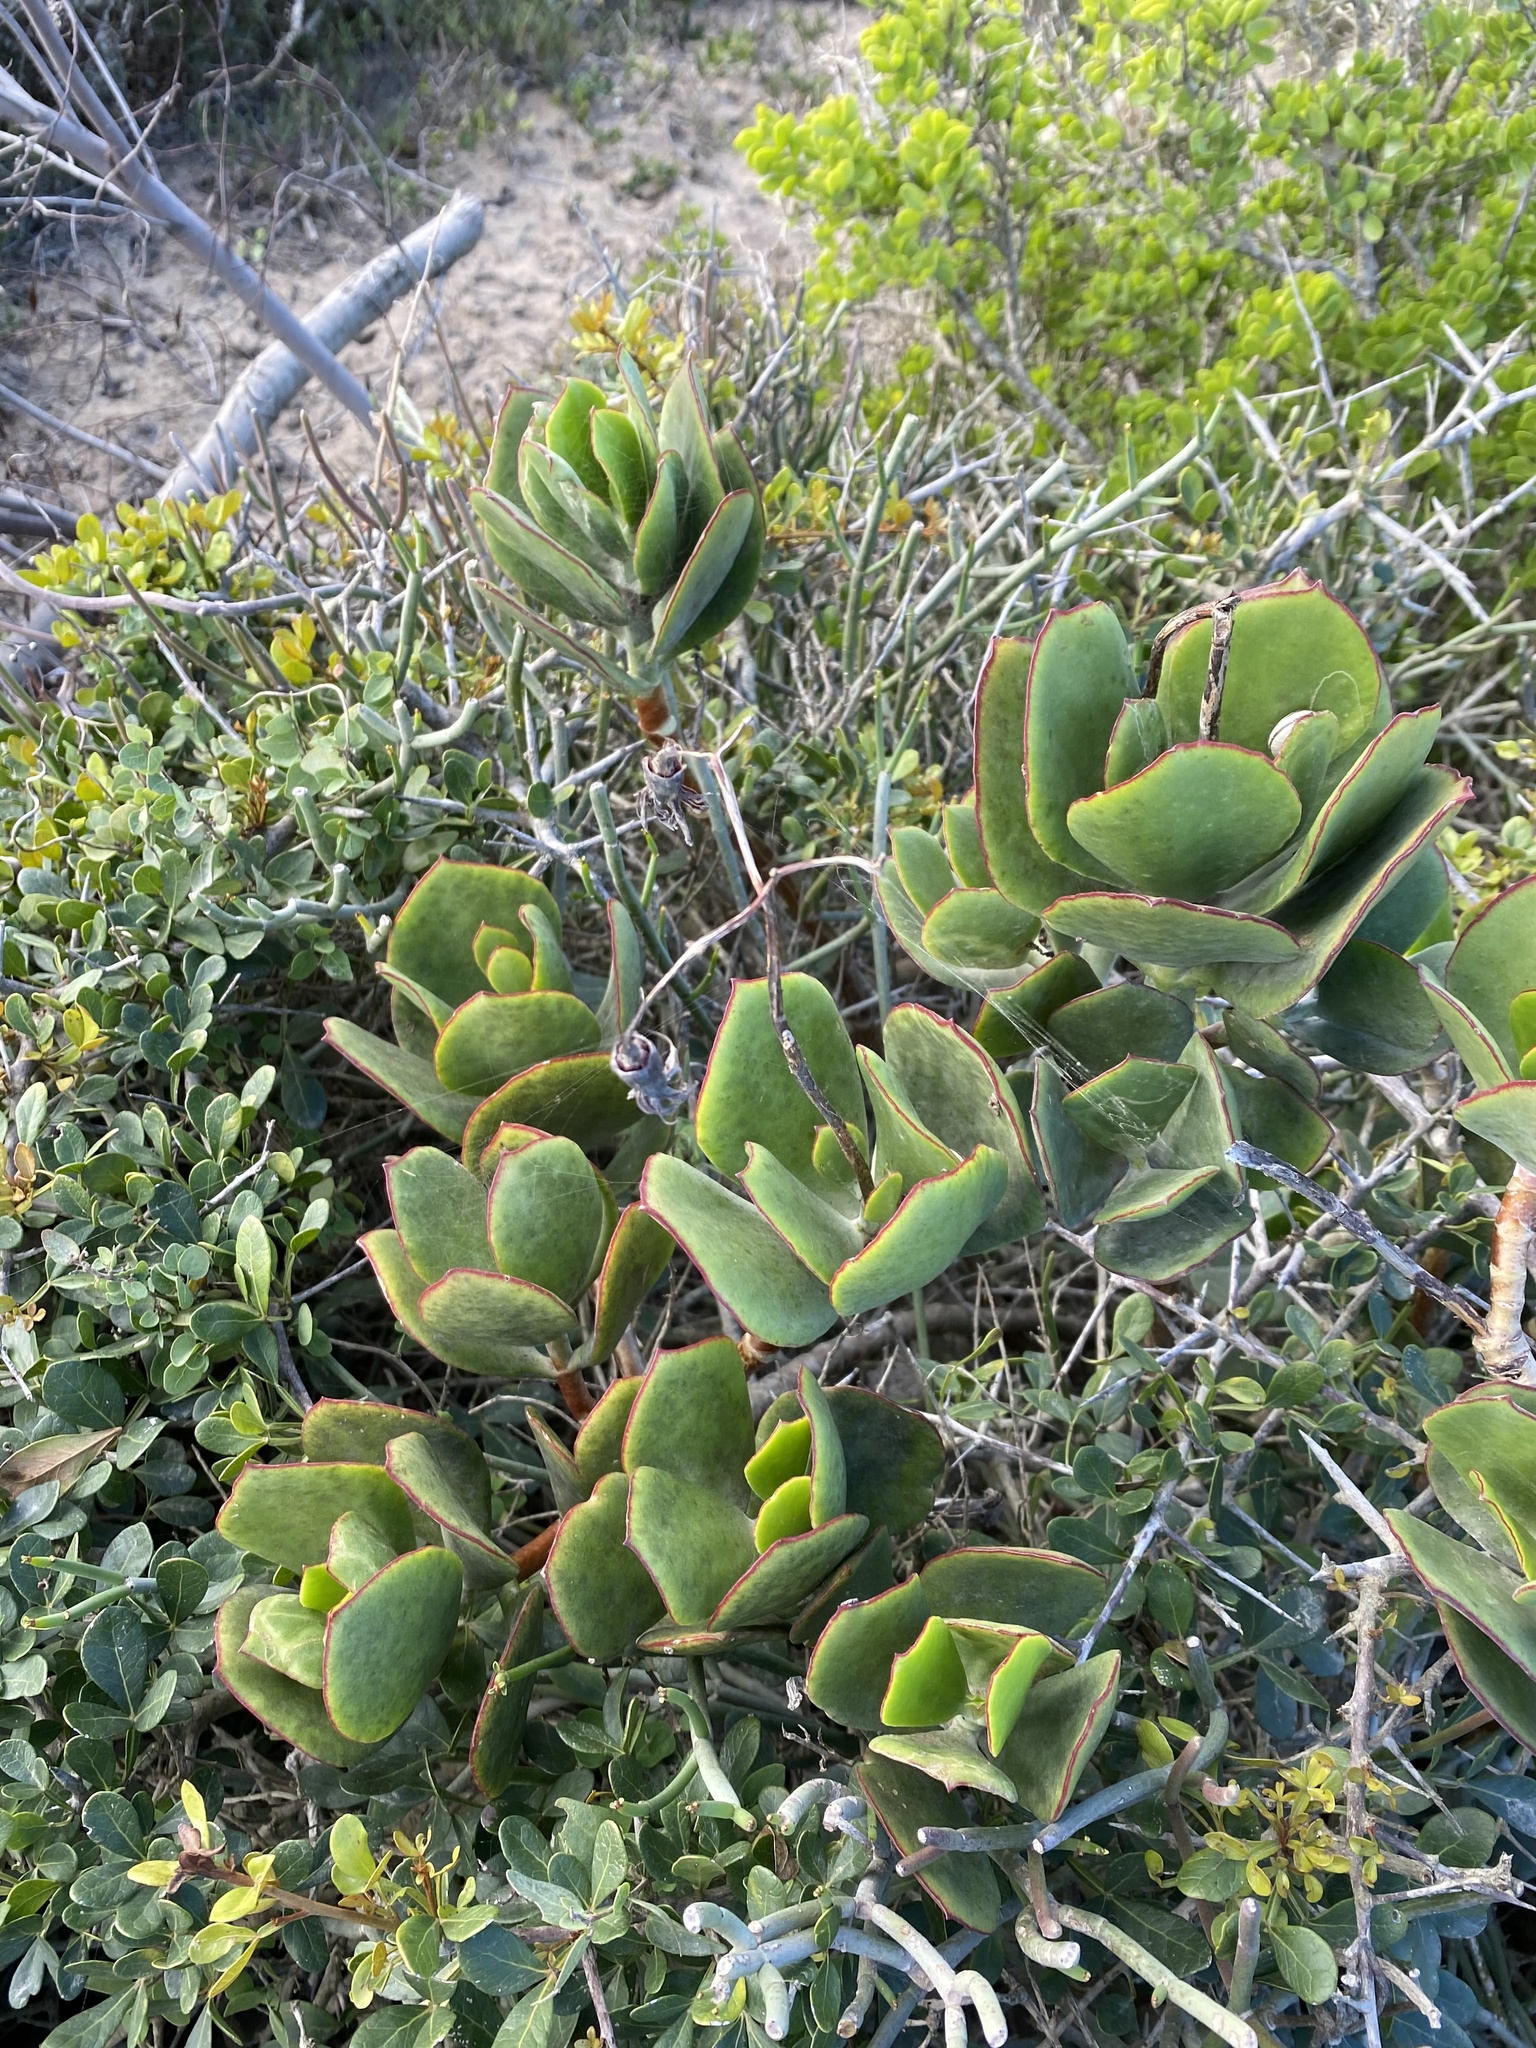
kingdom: Plantae
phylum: Tracheophyta
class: Magnoliopsida
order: Saxifragales
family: Crassulaceae
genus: Cotyledon
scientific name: Cotyledon orbiculata
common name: Pig's ear
